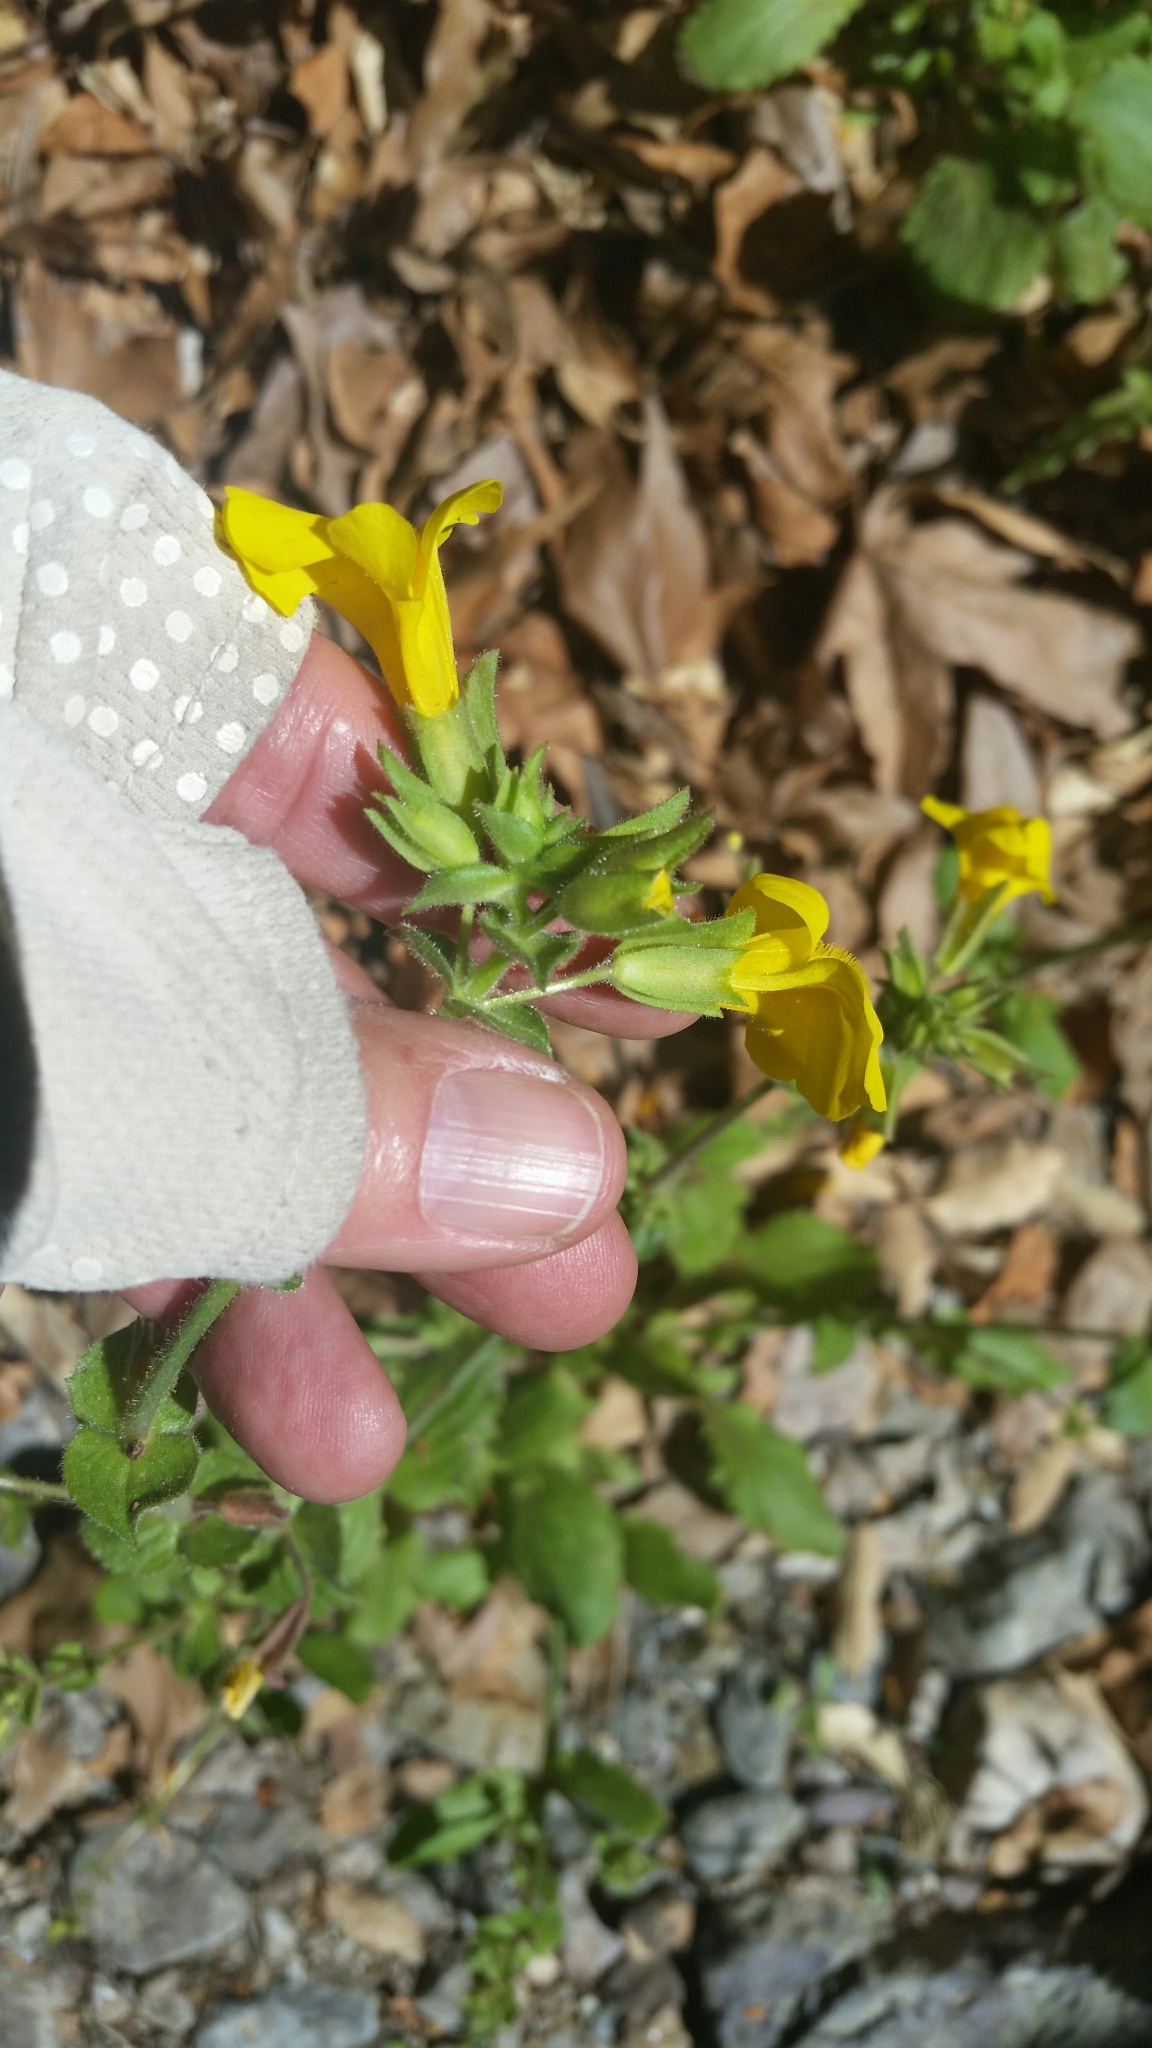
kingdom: Plantae
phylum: Tracheophyta
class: Magnoliopsida
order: Lamiales
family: Phrymaceae
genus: Erythranthe
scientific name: Erythranthe guttata
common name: Monkeyflower
